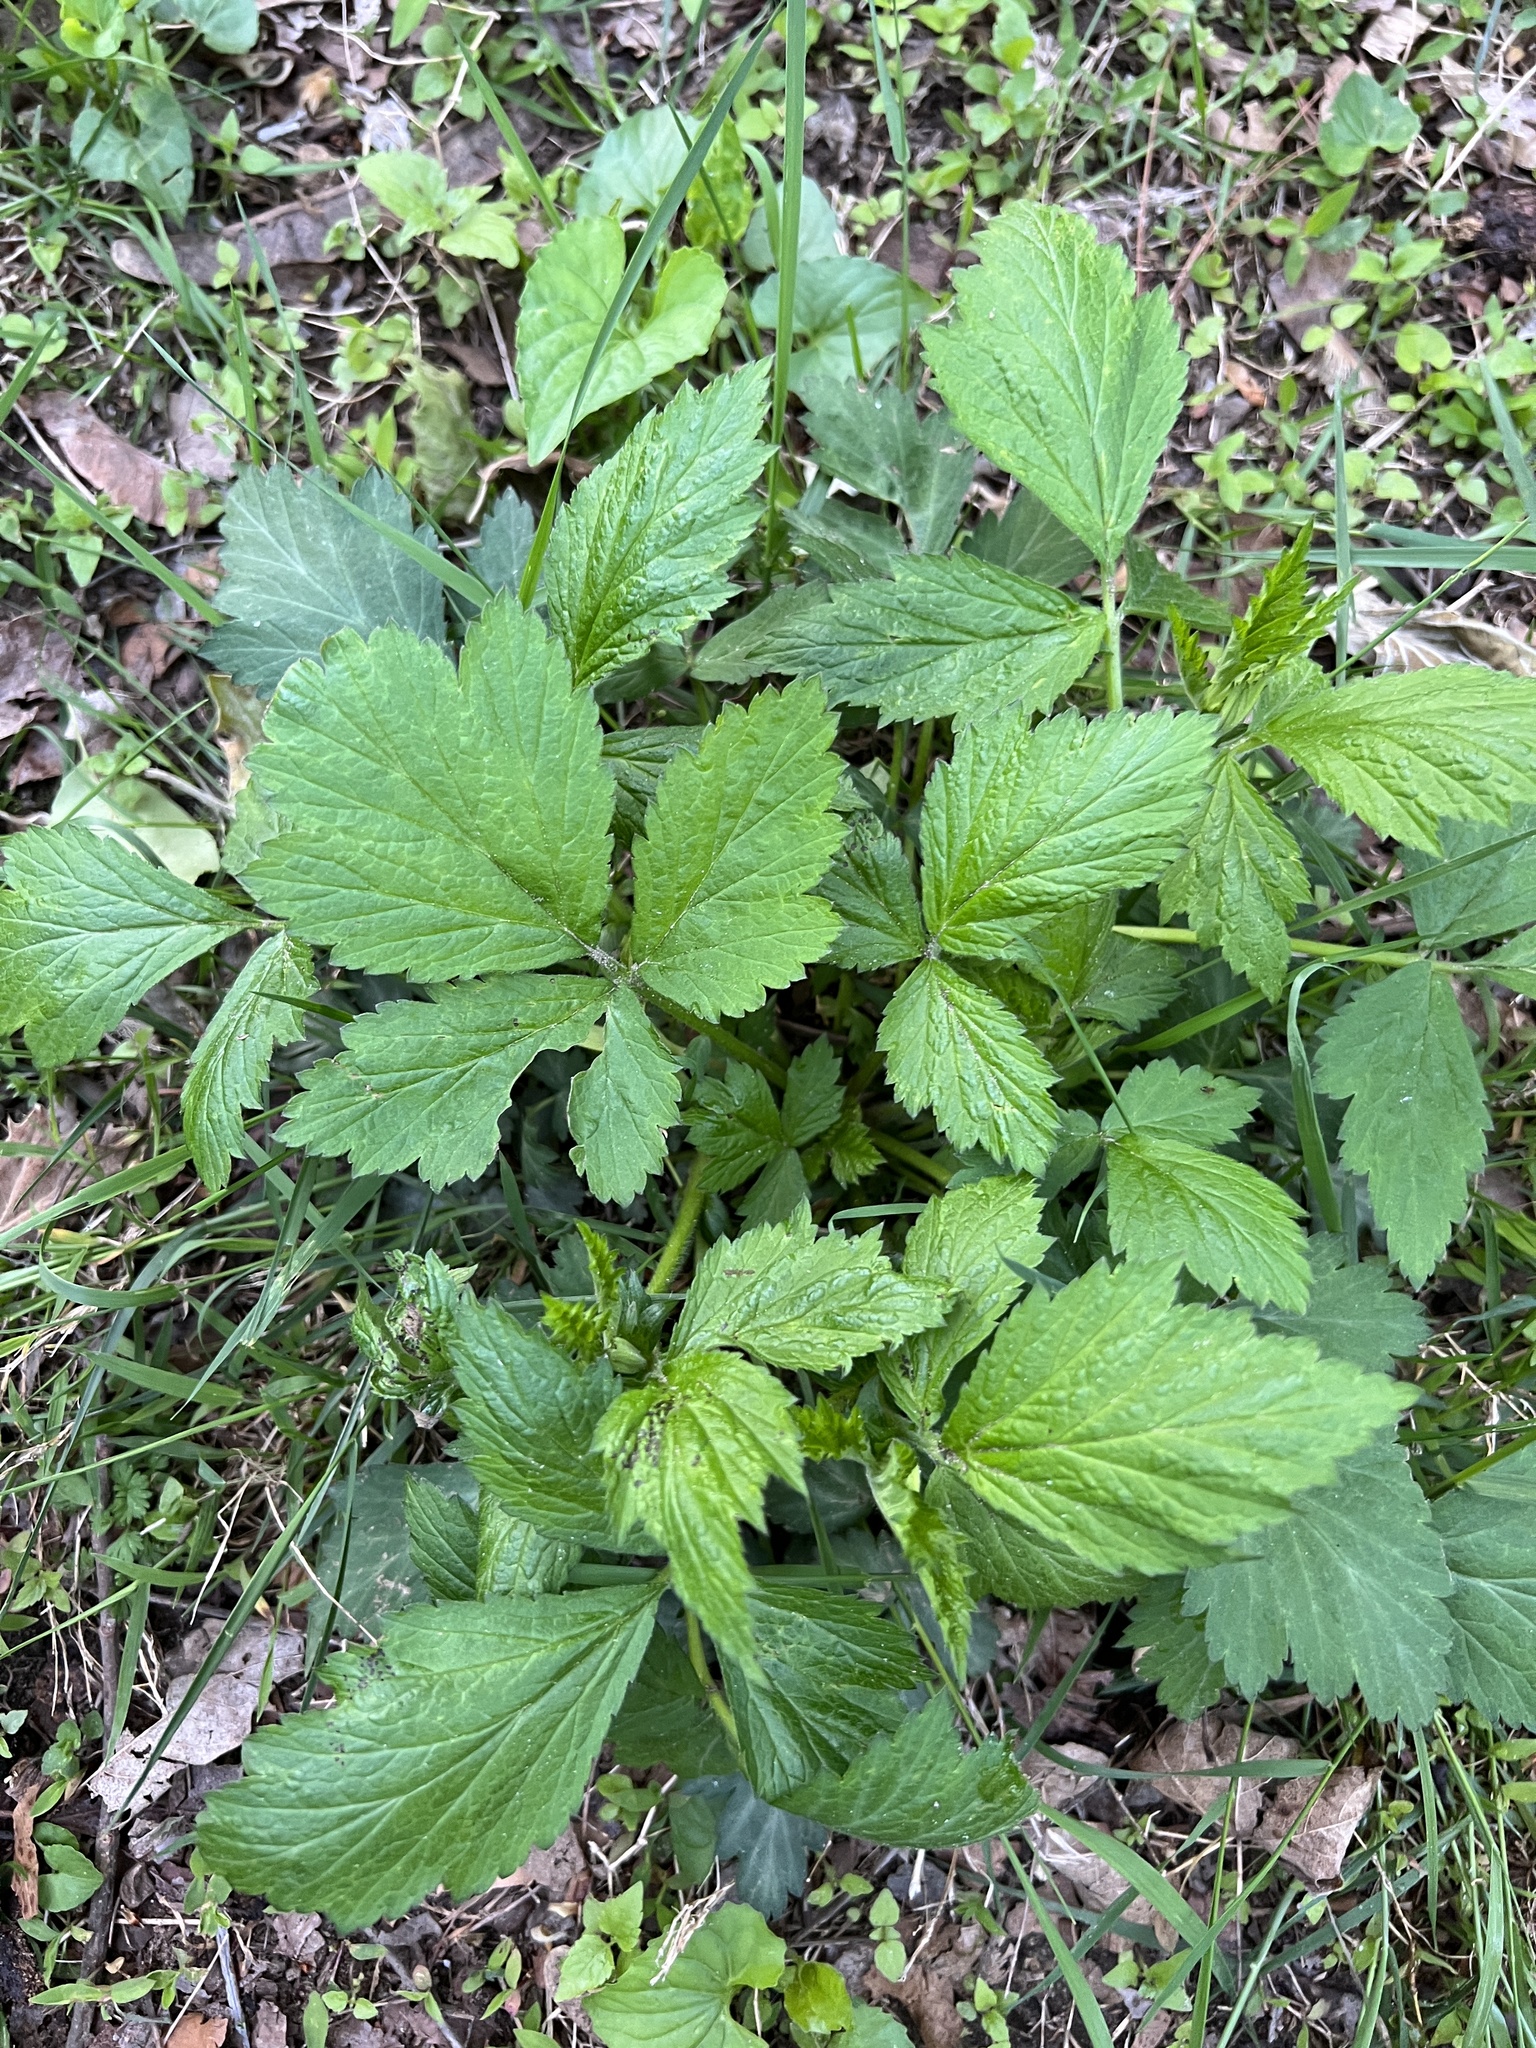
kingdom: Plantae
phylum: Tracheophyta
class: Magnoliopsida
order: Rosales
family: Rosaceae
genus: Geum
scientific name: Geum canadense
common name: White avens
